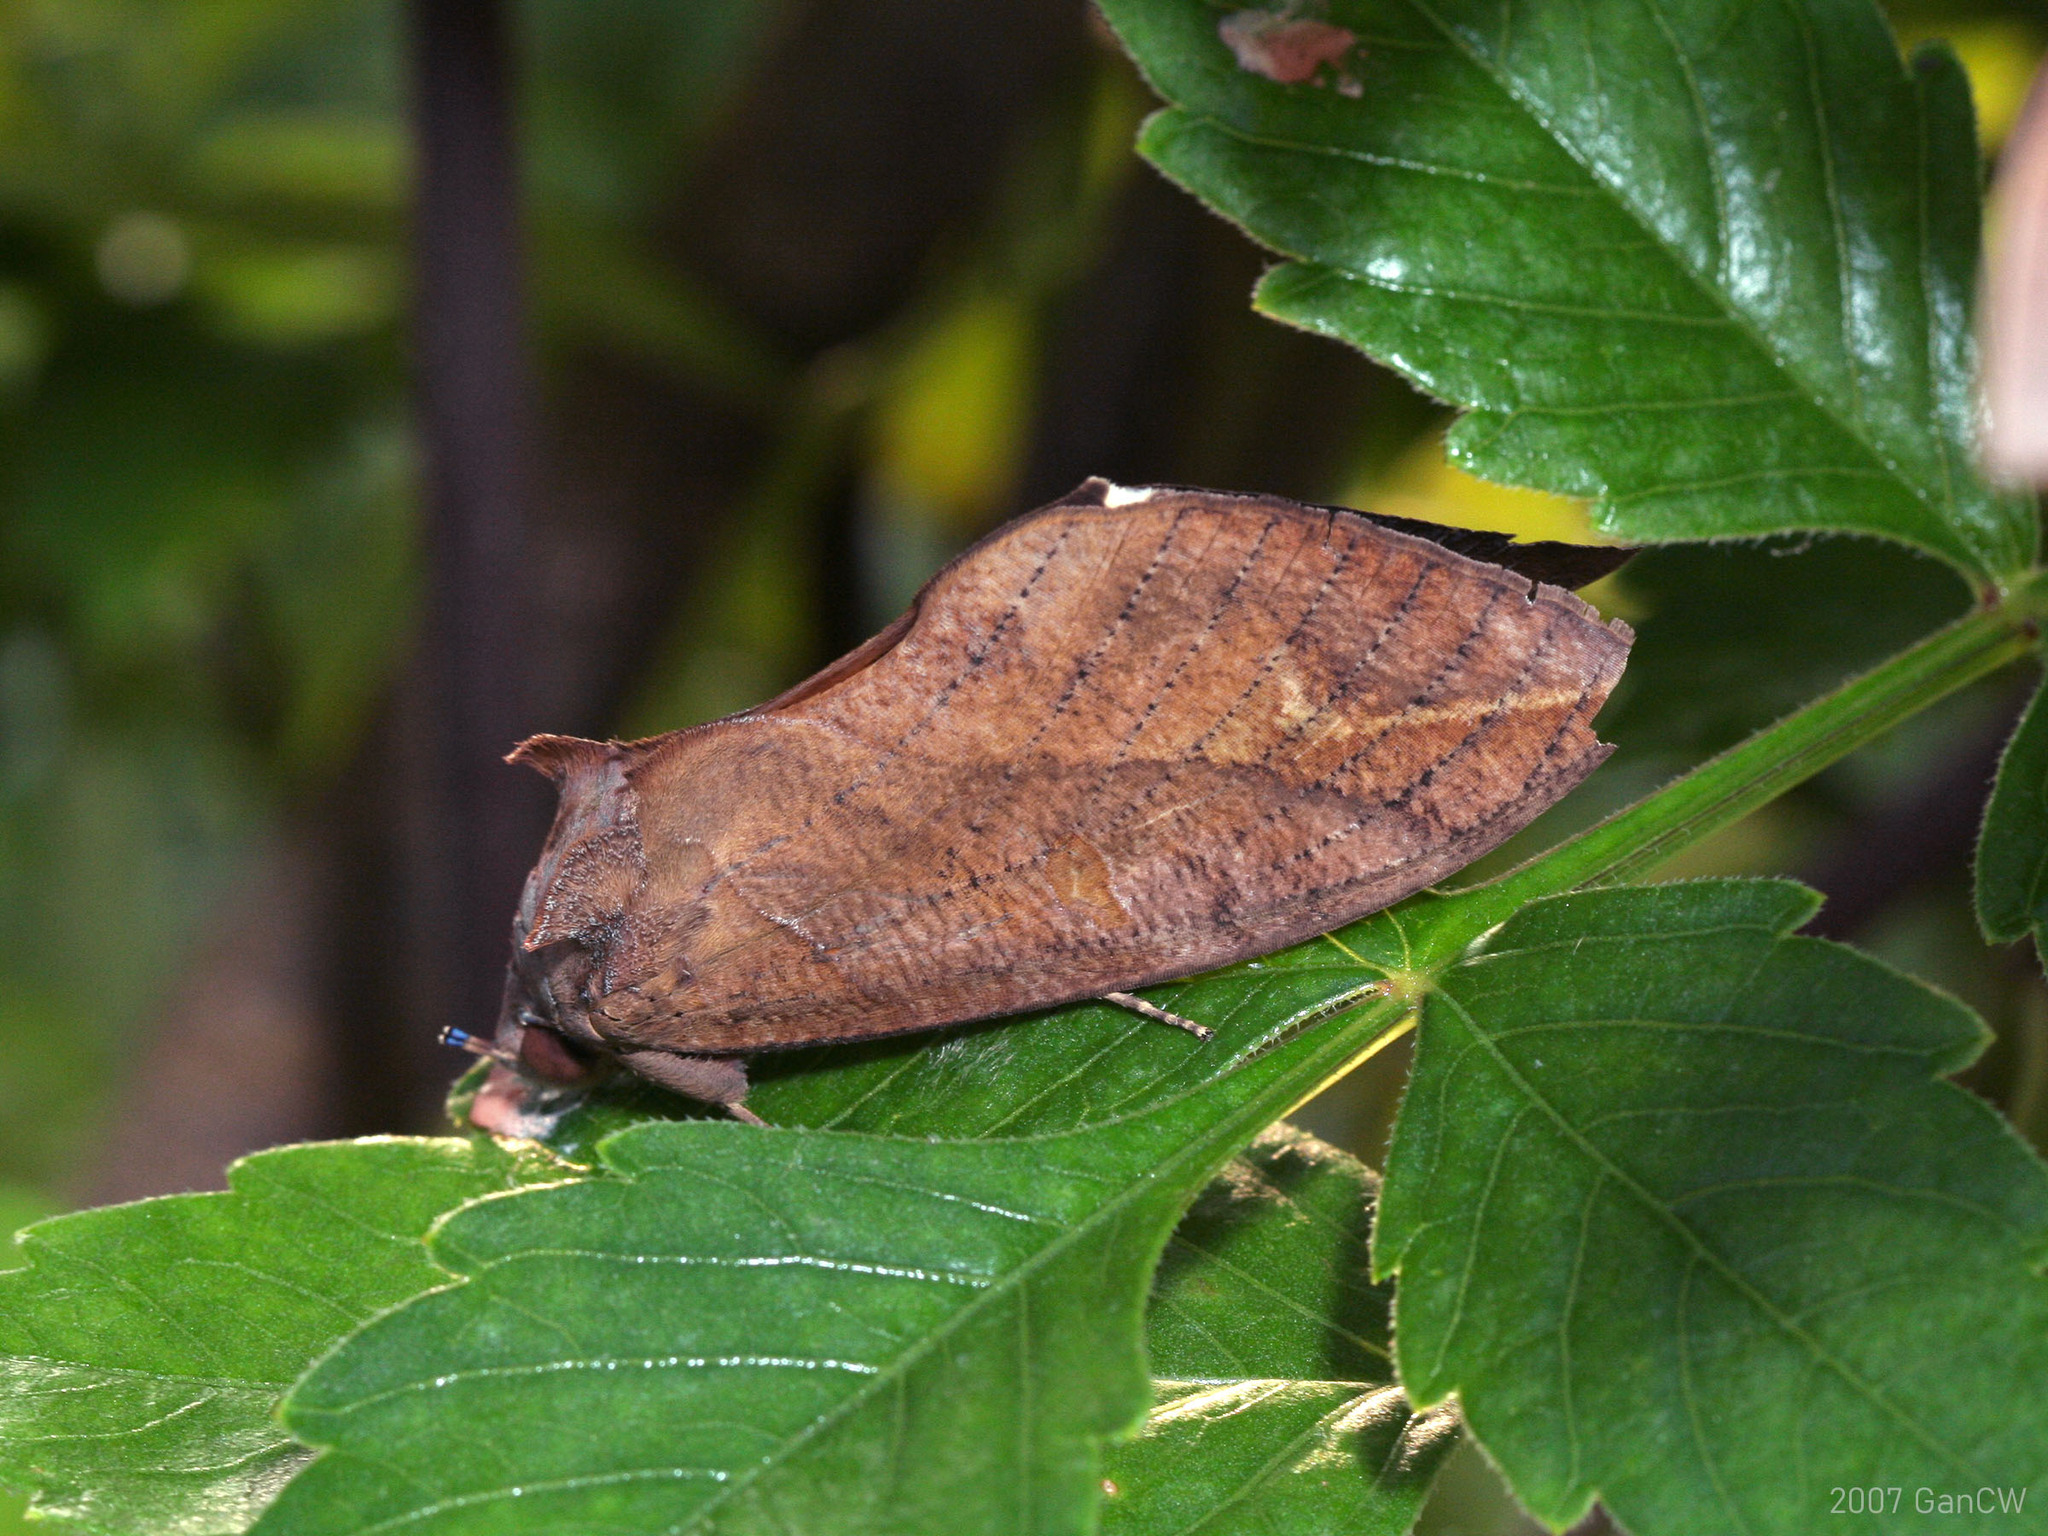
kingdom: Animalia
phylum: Arthropoda
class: Insecta
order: Lepidoptera
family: Erebidae
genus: Eudocima
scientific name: Eudocima phalonia
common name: Wasp
